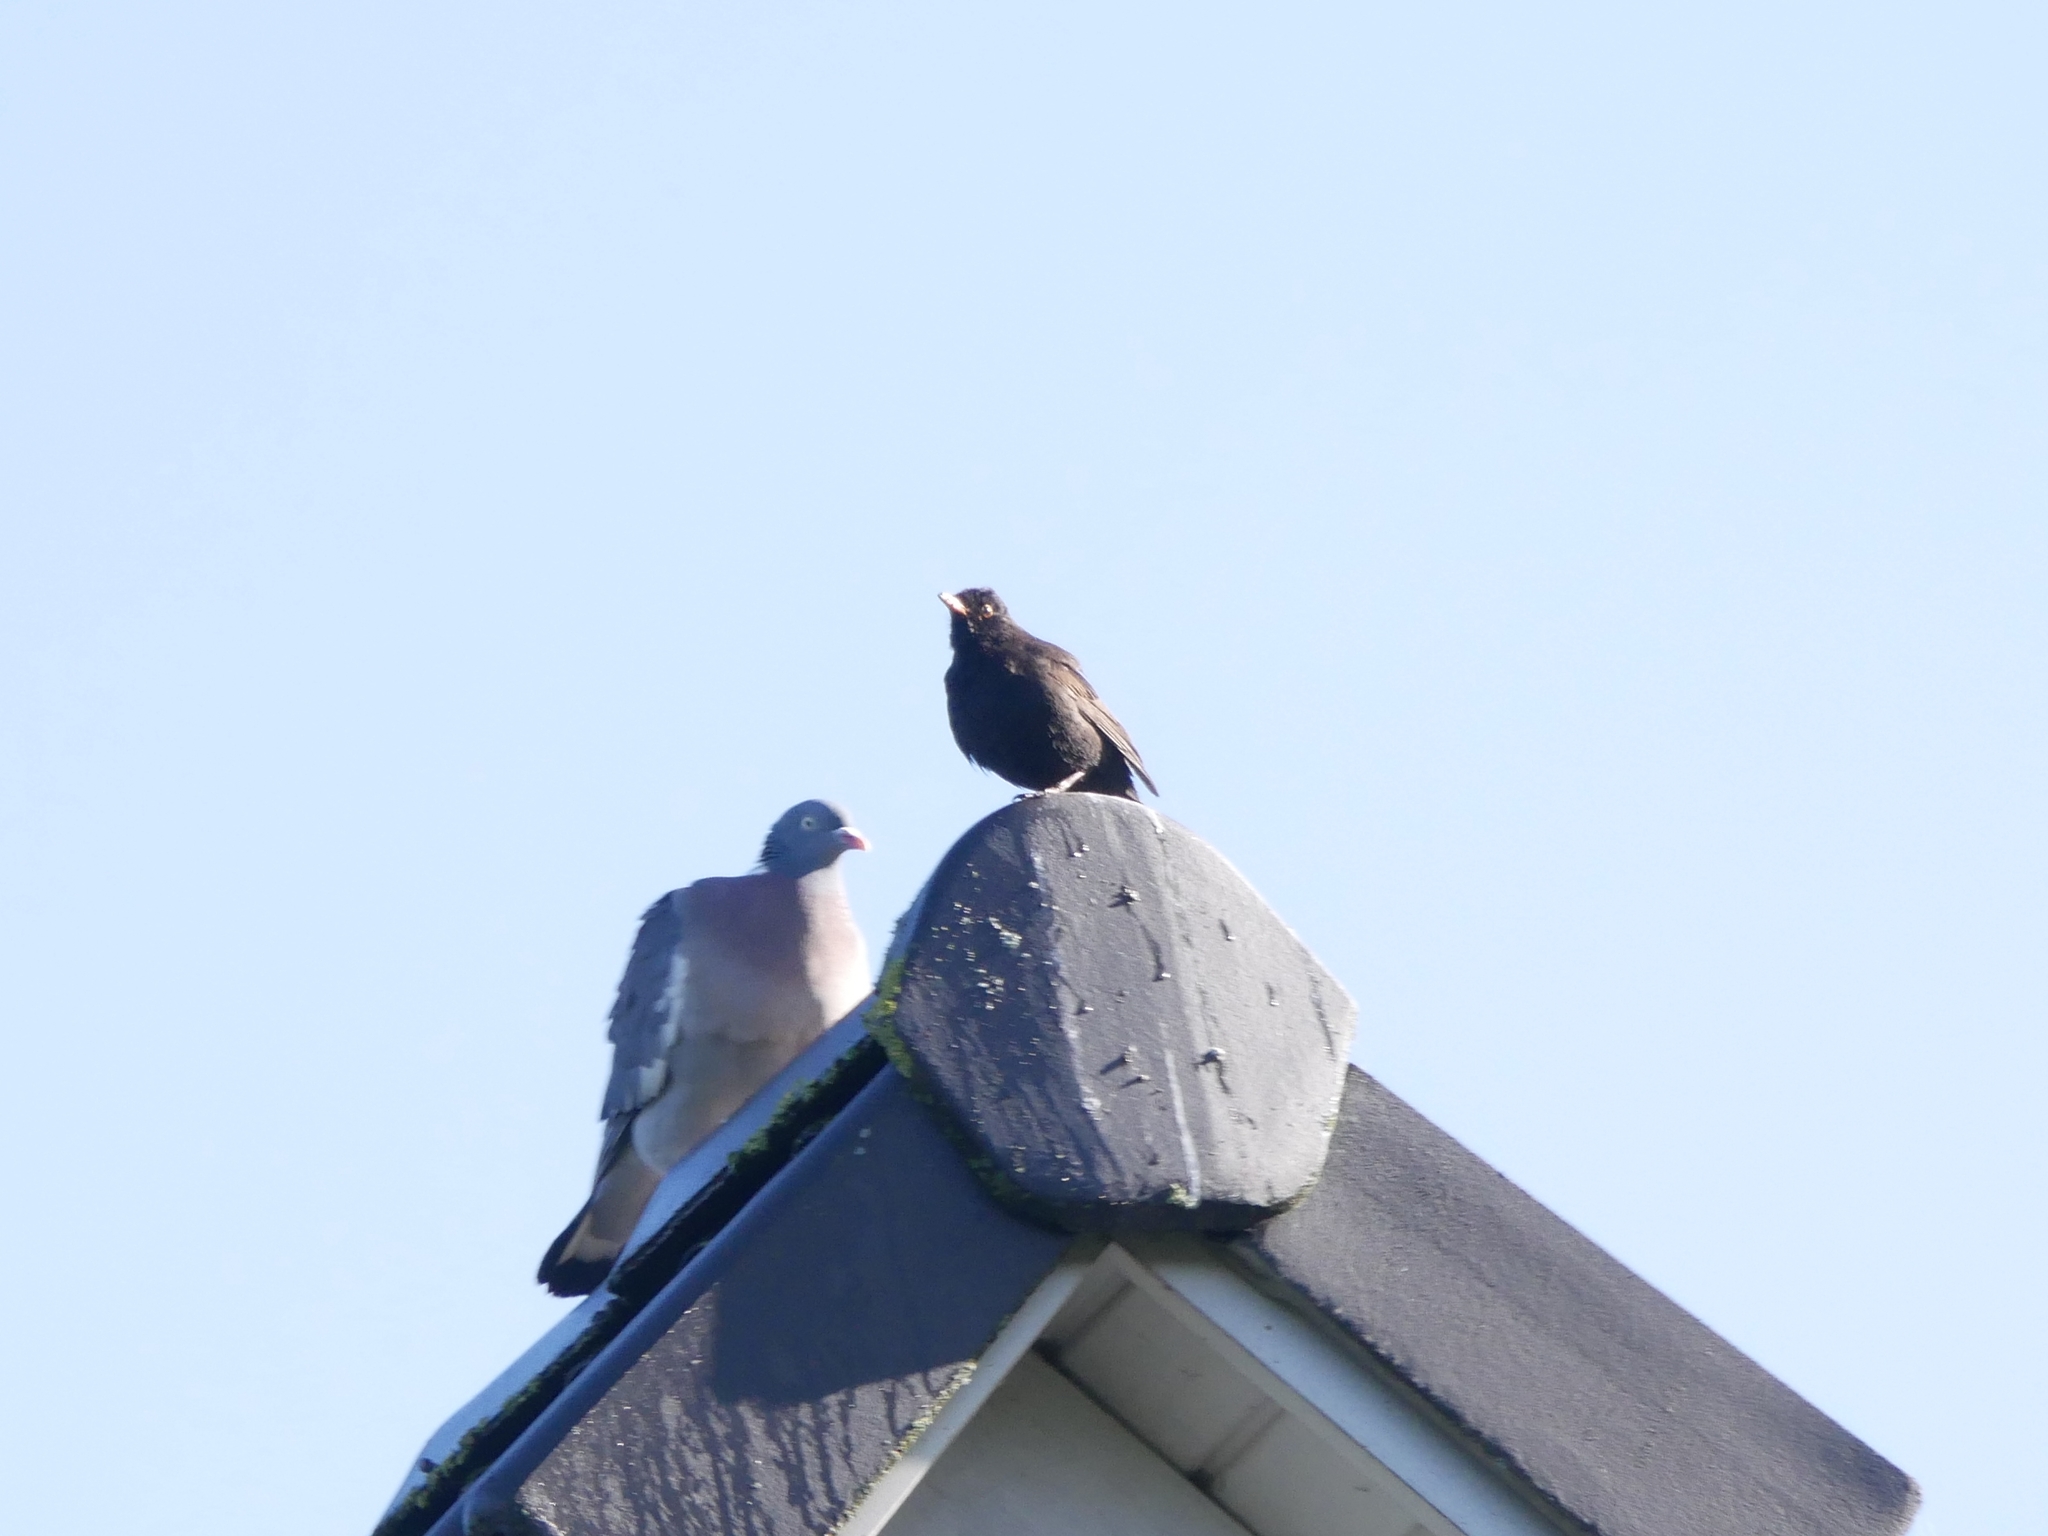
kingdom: Animalia
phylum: Chordata
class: Aves
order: Passeriformes
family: Turdidae
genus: Turdus
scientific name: Turdus merula
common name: Common blackbird
